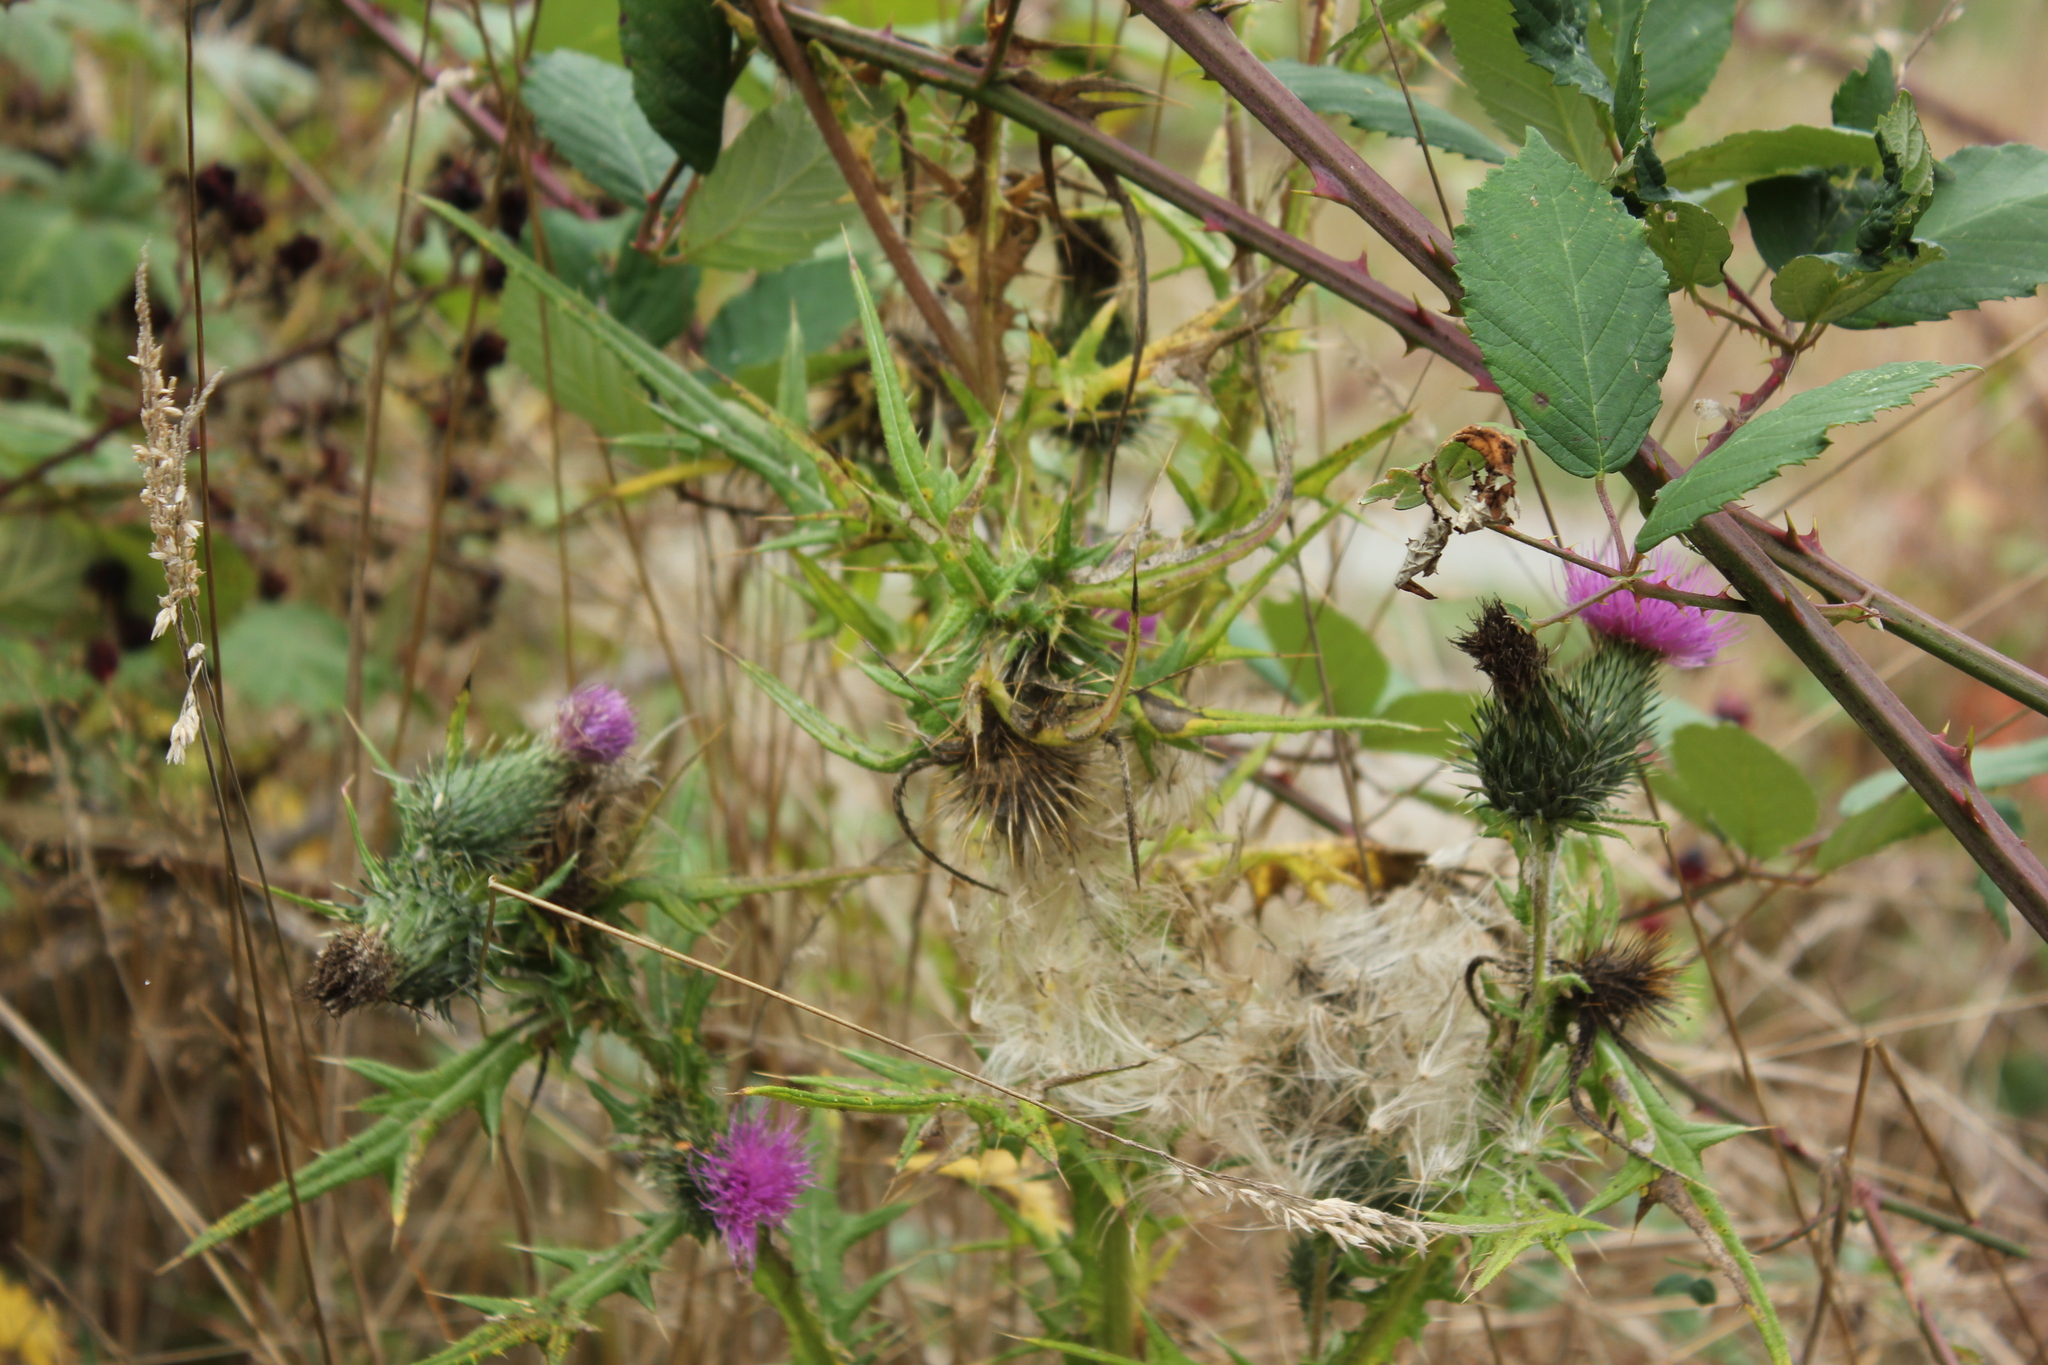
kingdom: Plantae
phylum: Tracheophyta
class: Magnoliopsida
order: Asterales
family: Asteraceae
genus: Cirsium
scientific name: Cirsium vulgare
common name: Bull thistle
